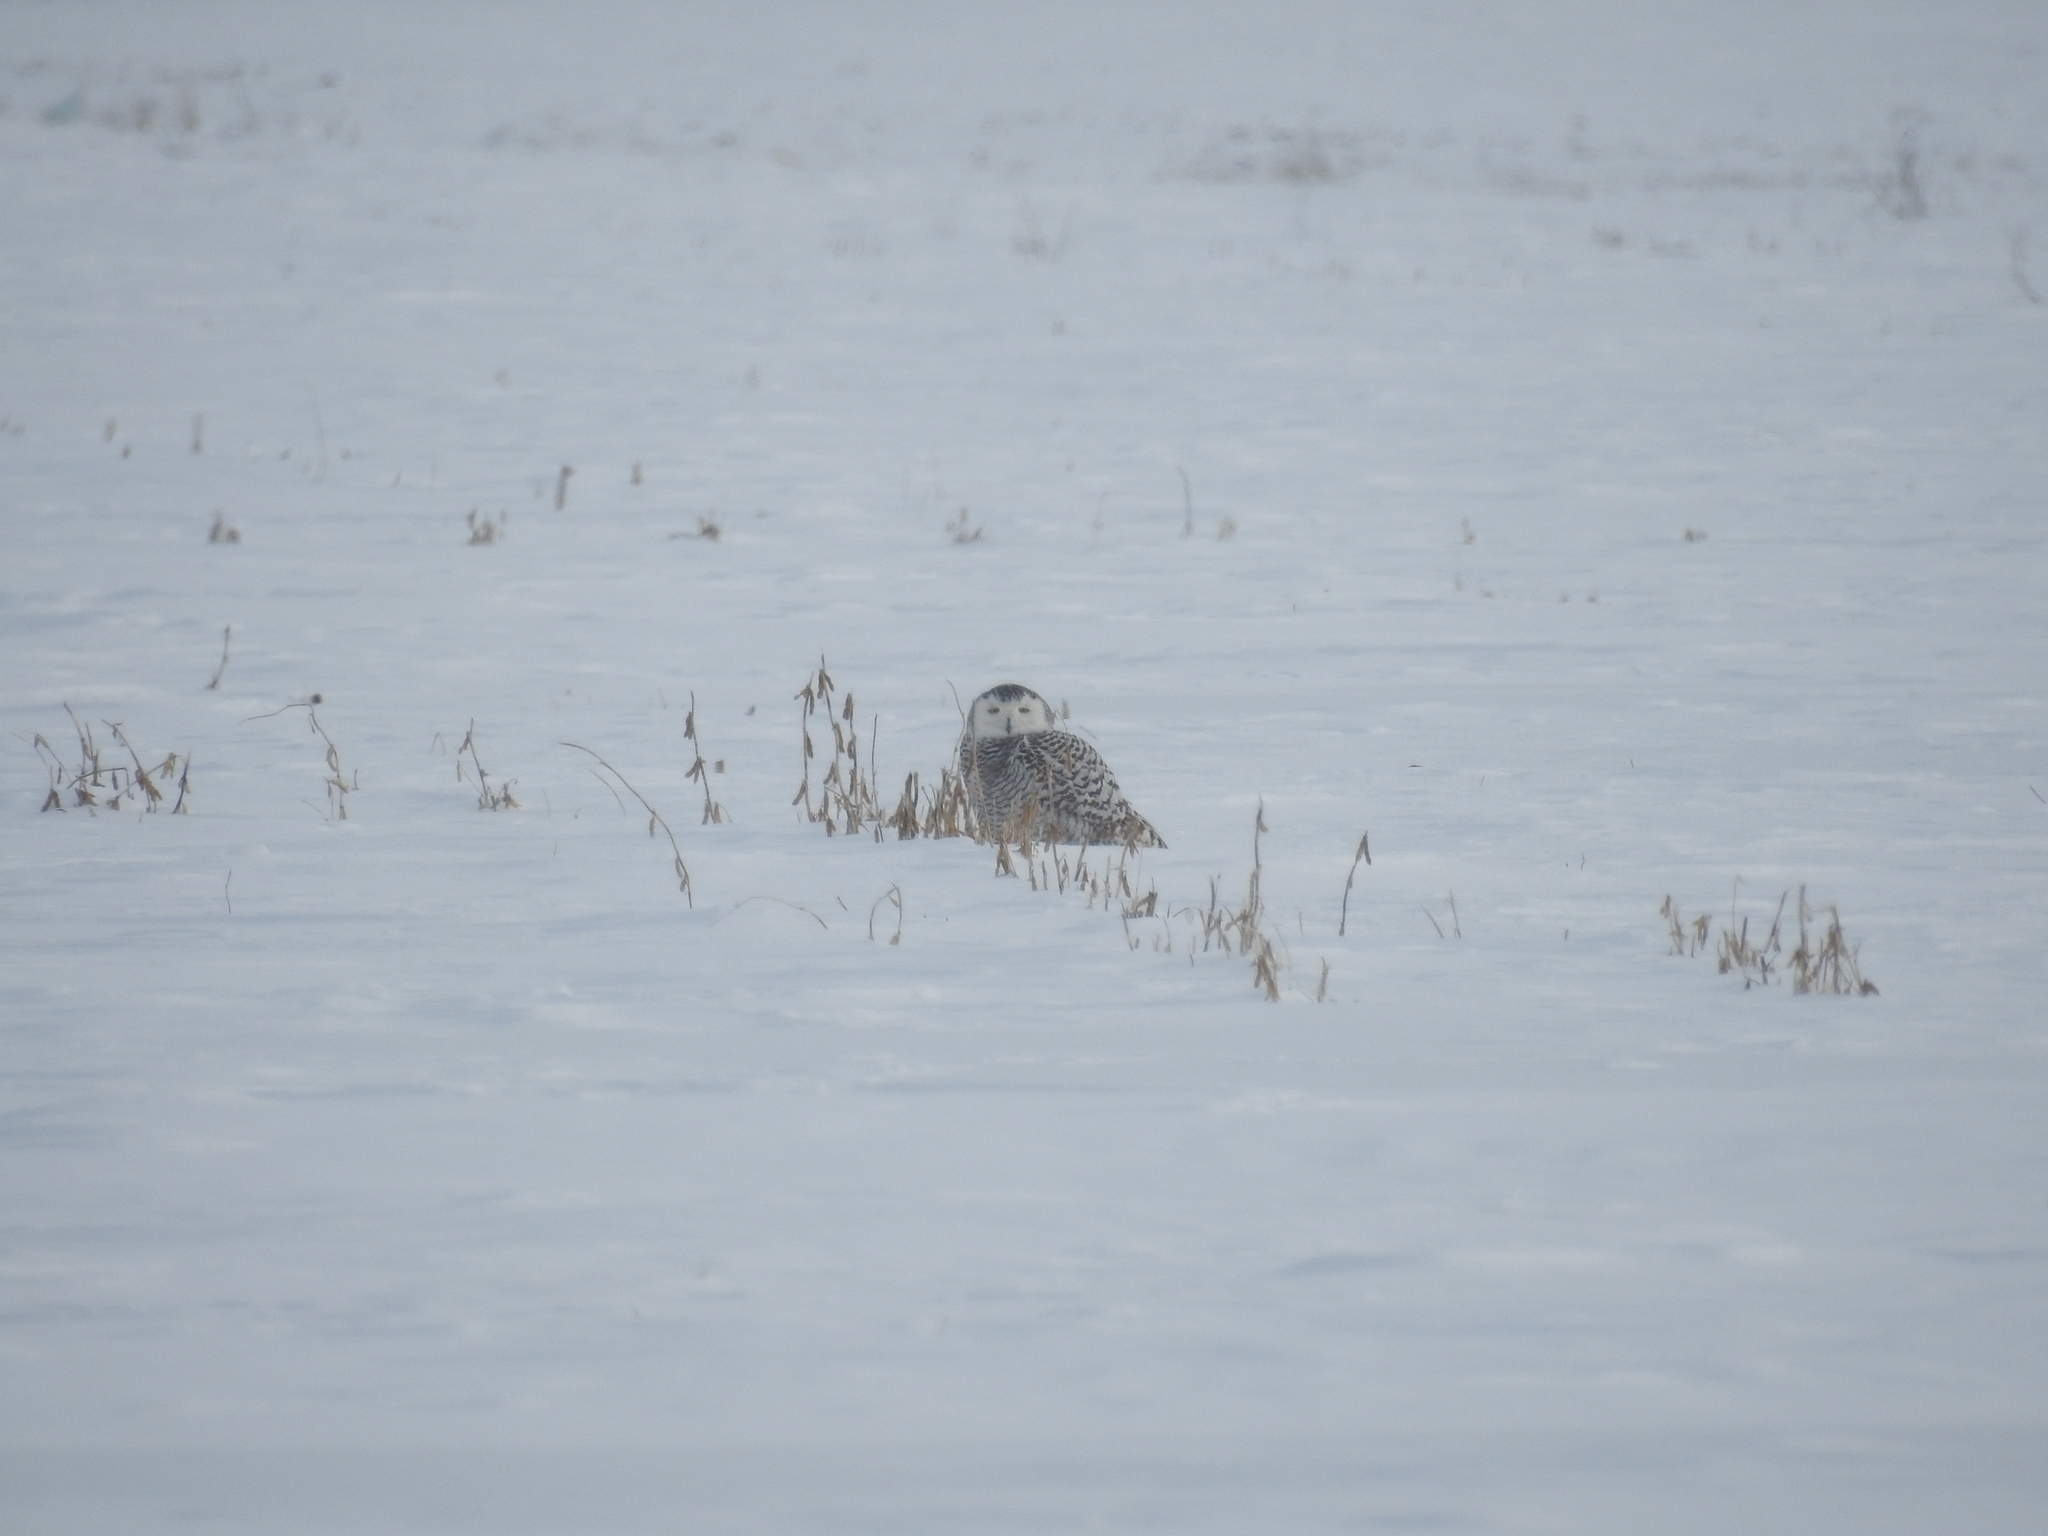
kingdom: Animalia
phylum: Chordata
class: Aves
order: Strigiformes
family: Strigidae
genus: Bubo
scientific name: Bubo scandiacus
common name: Snowy owl
